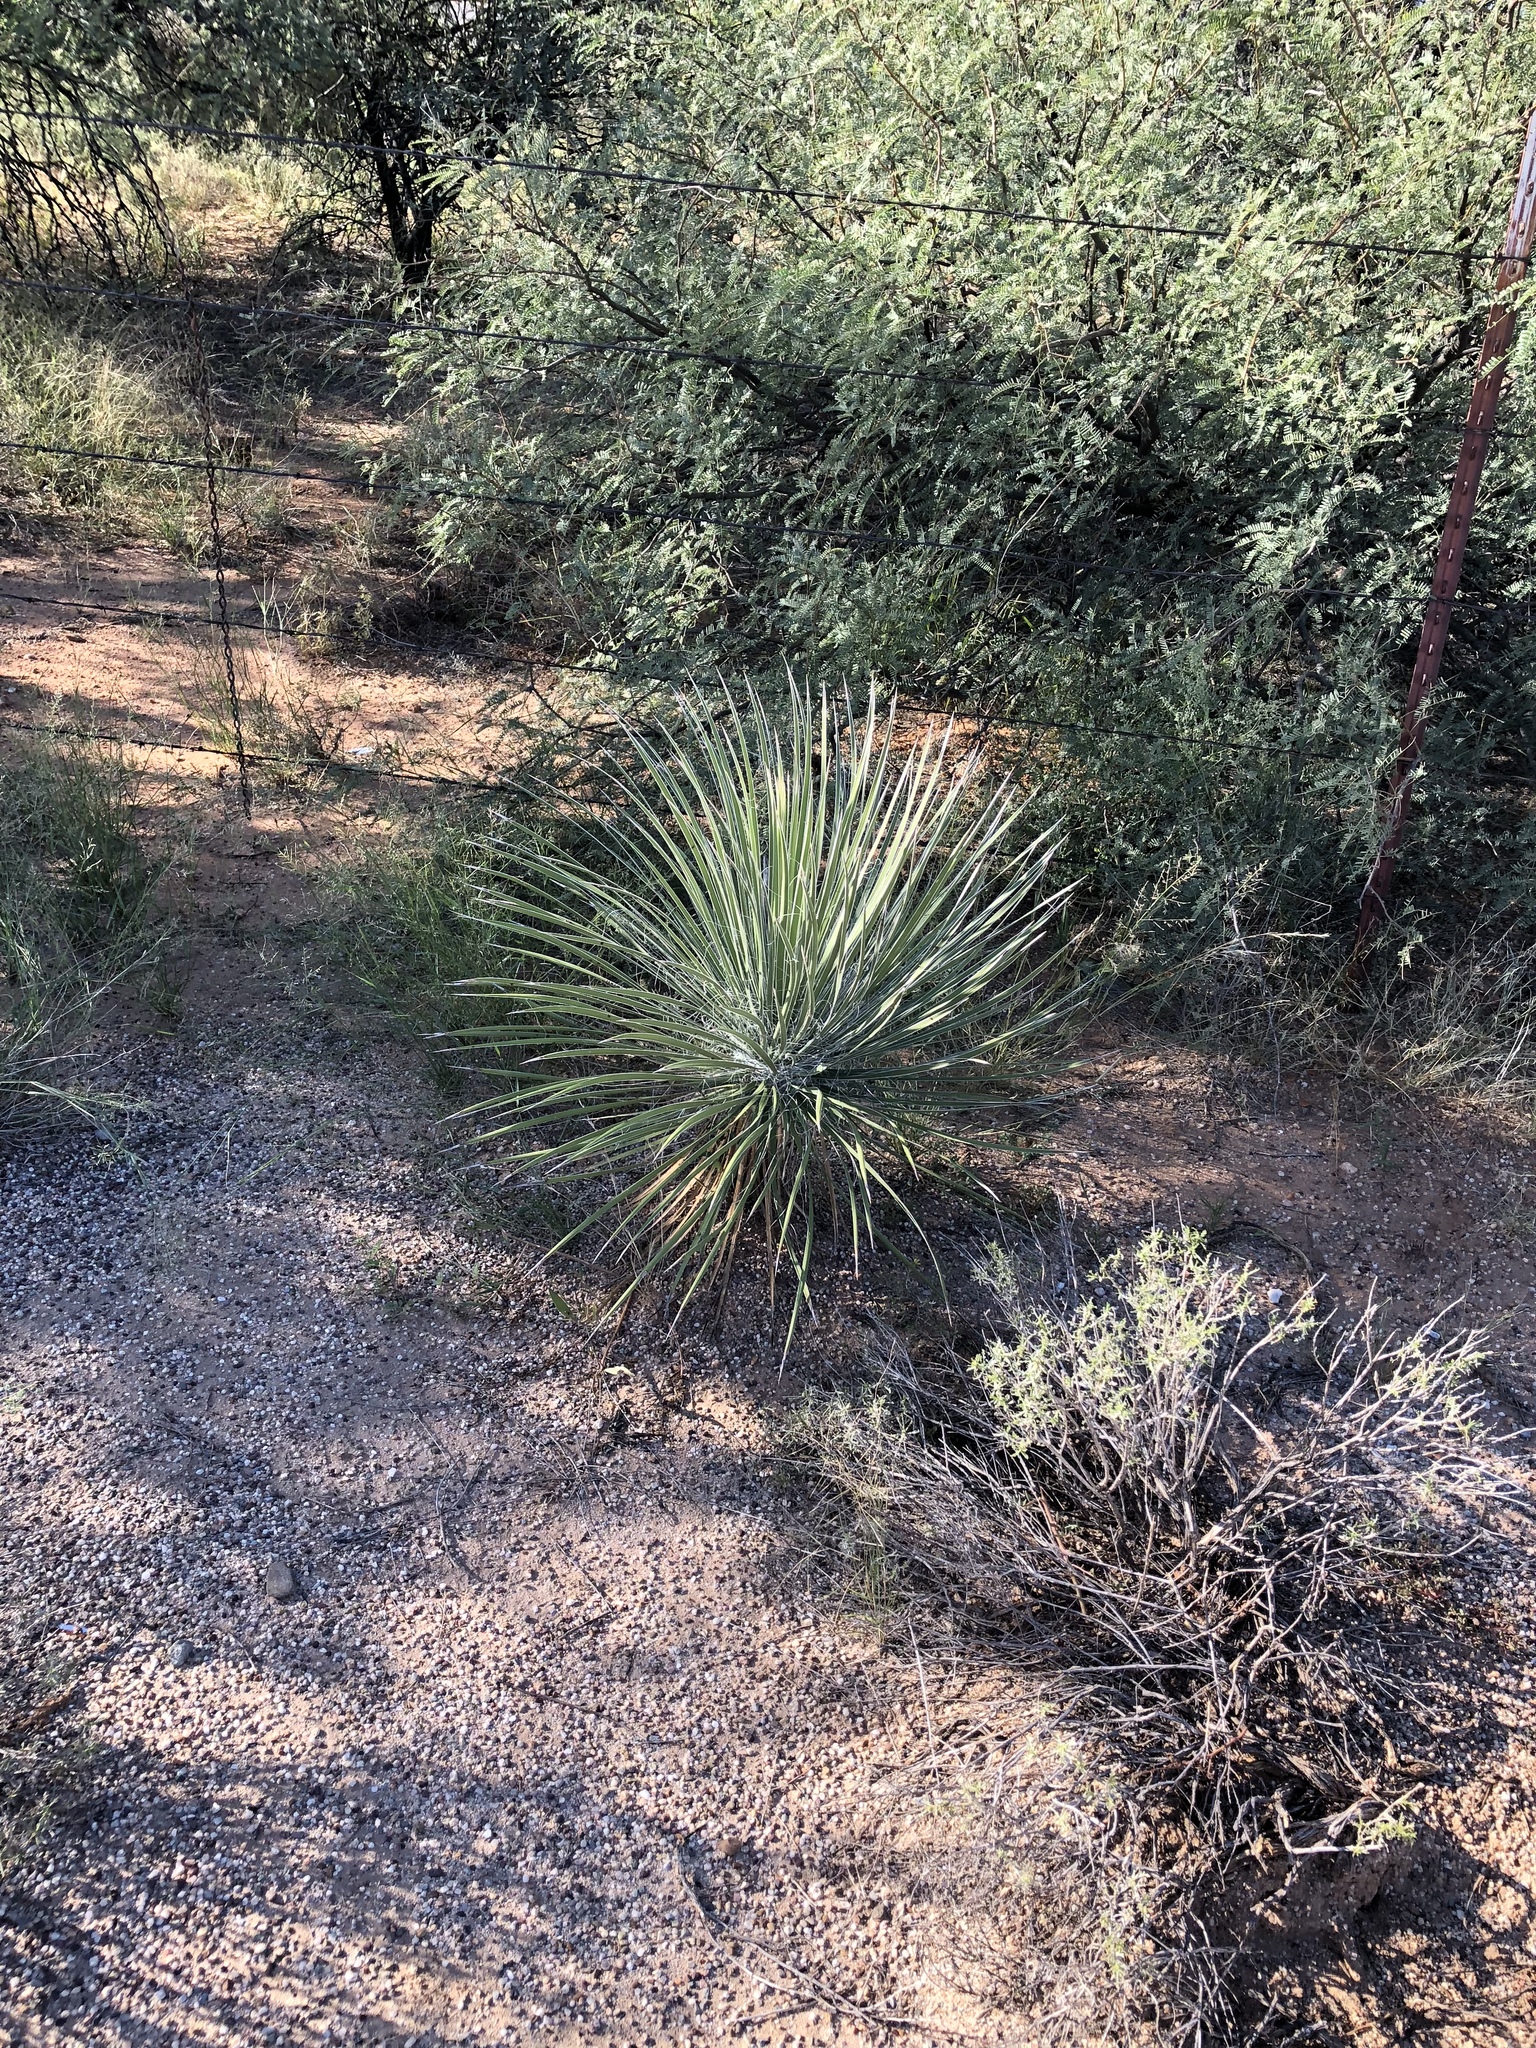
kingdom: Plantae
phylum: Tracheophyta
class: Liliopsida
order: Asparagales
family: Asparagaceae
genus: Yucca
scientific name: Yucca elata
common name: Palmella
